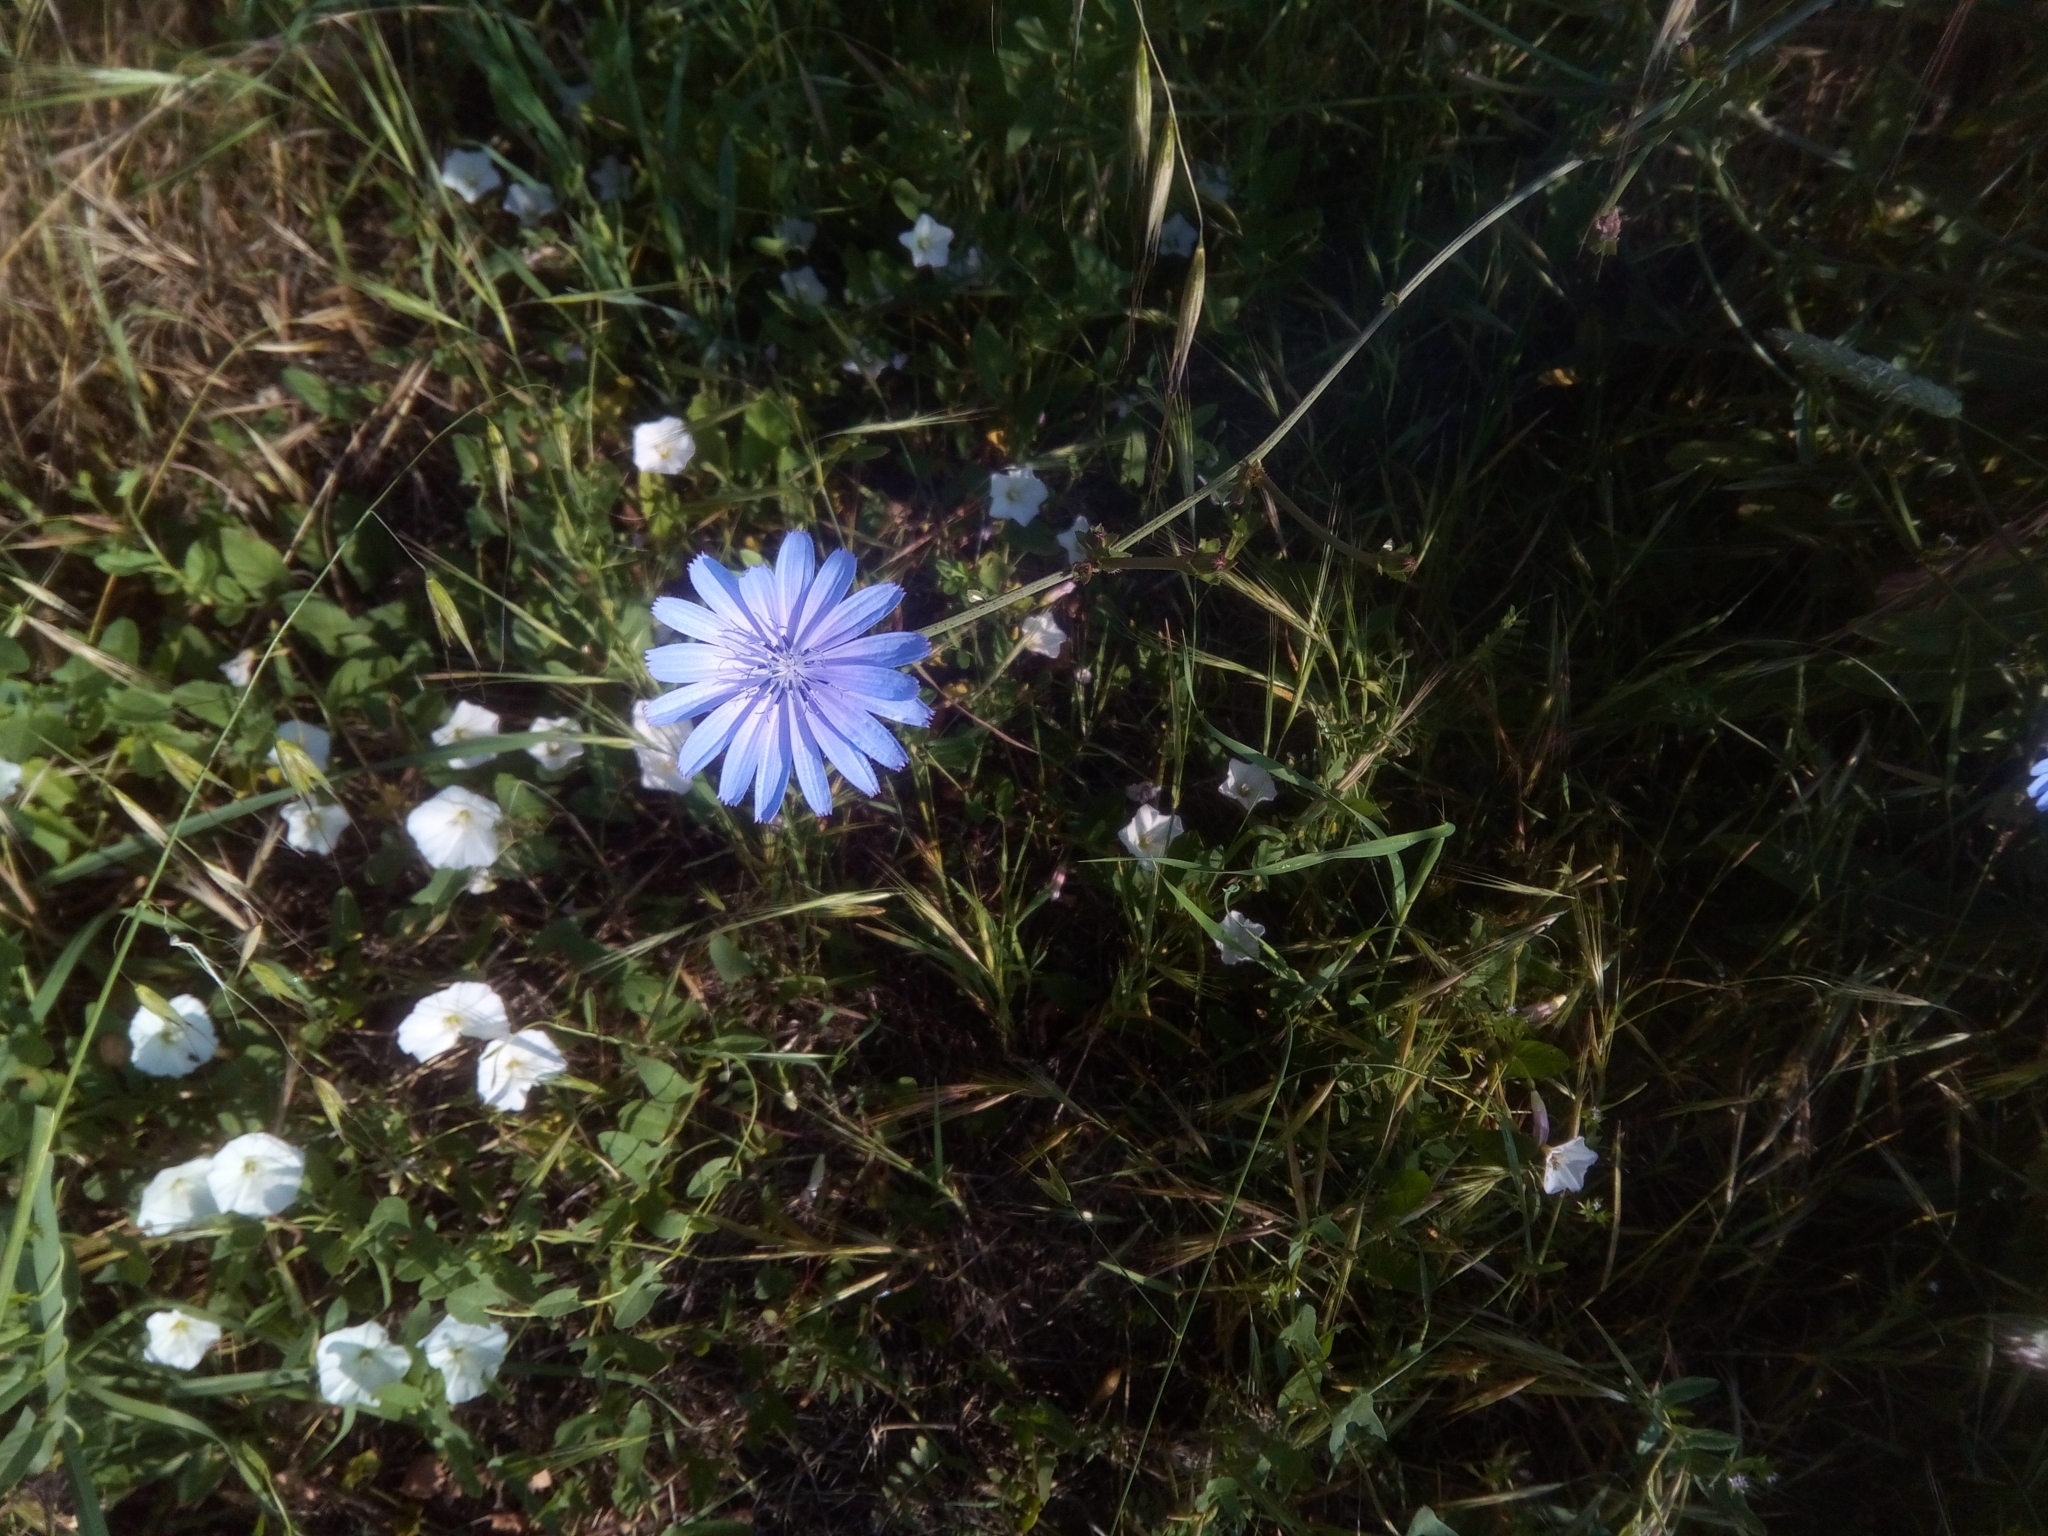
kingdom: Plantae
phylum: Tracheophyta
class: Magnoliopsida
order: Asterales
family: Asteraceae
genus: Cichorium
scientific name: Cichorium intybus
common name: Chicory
